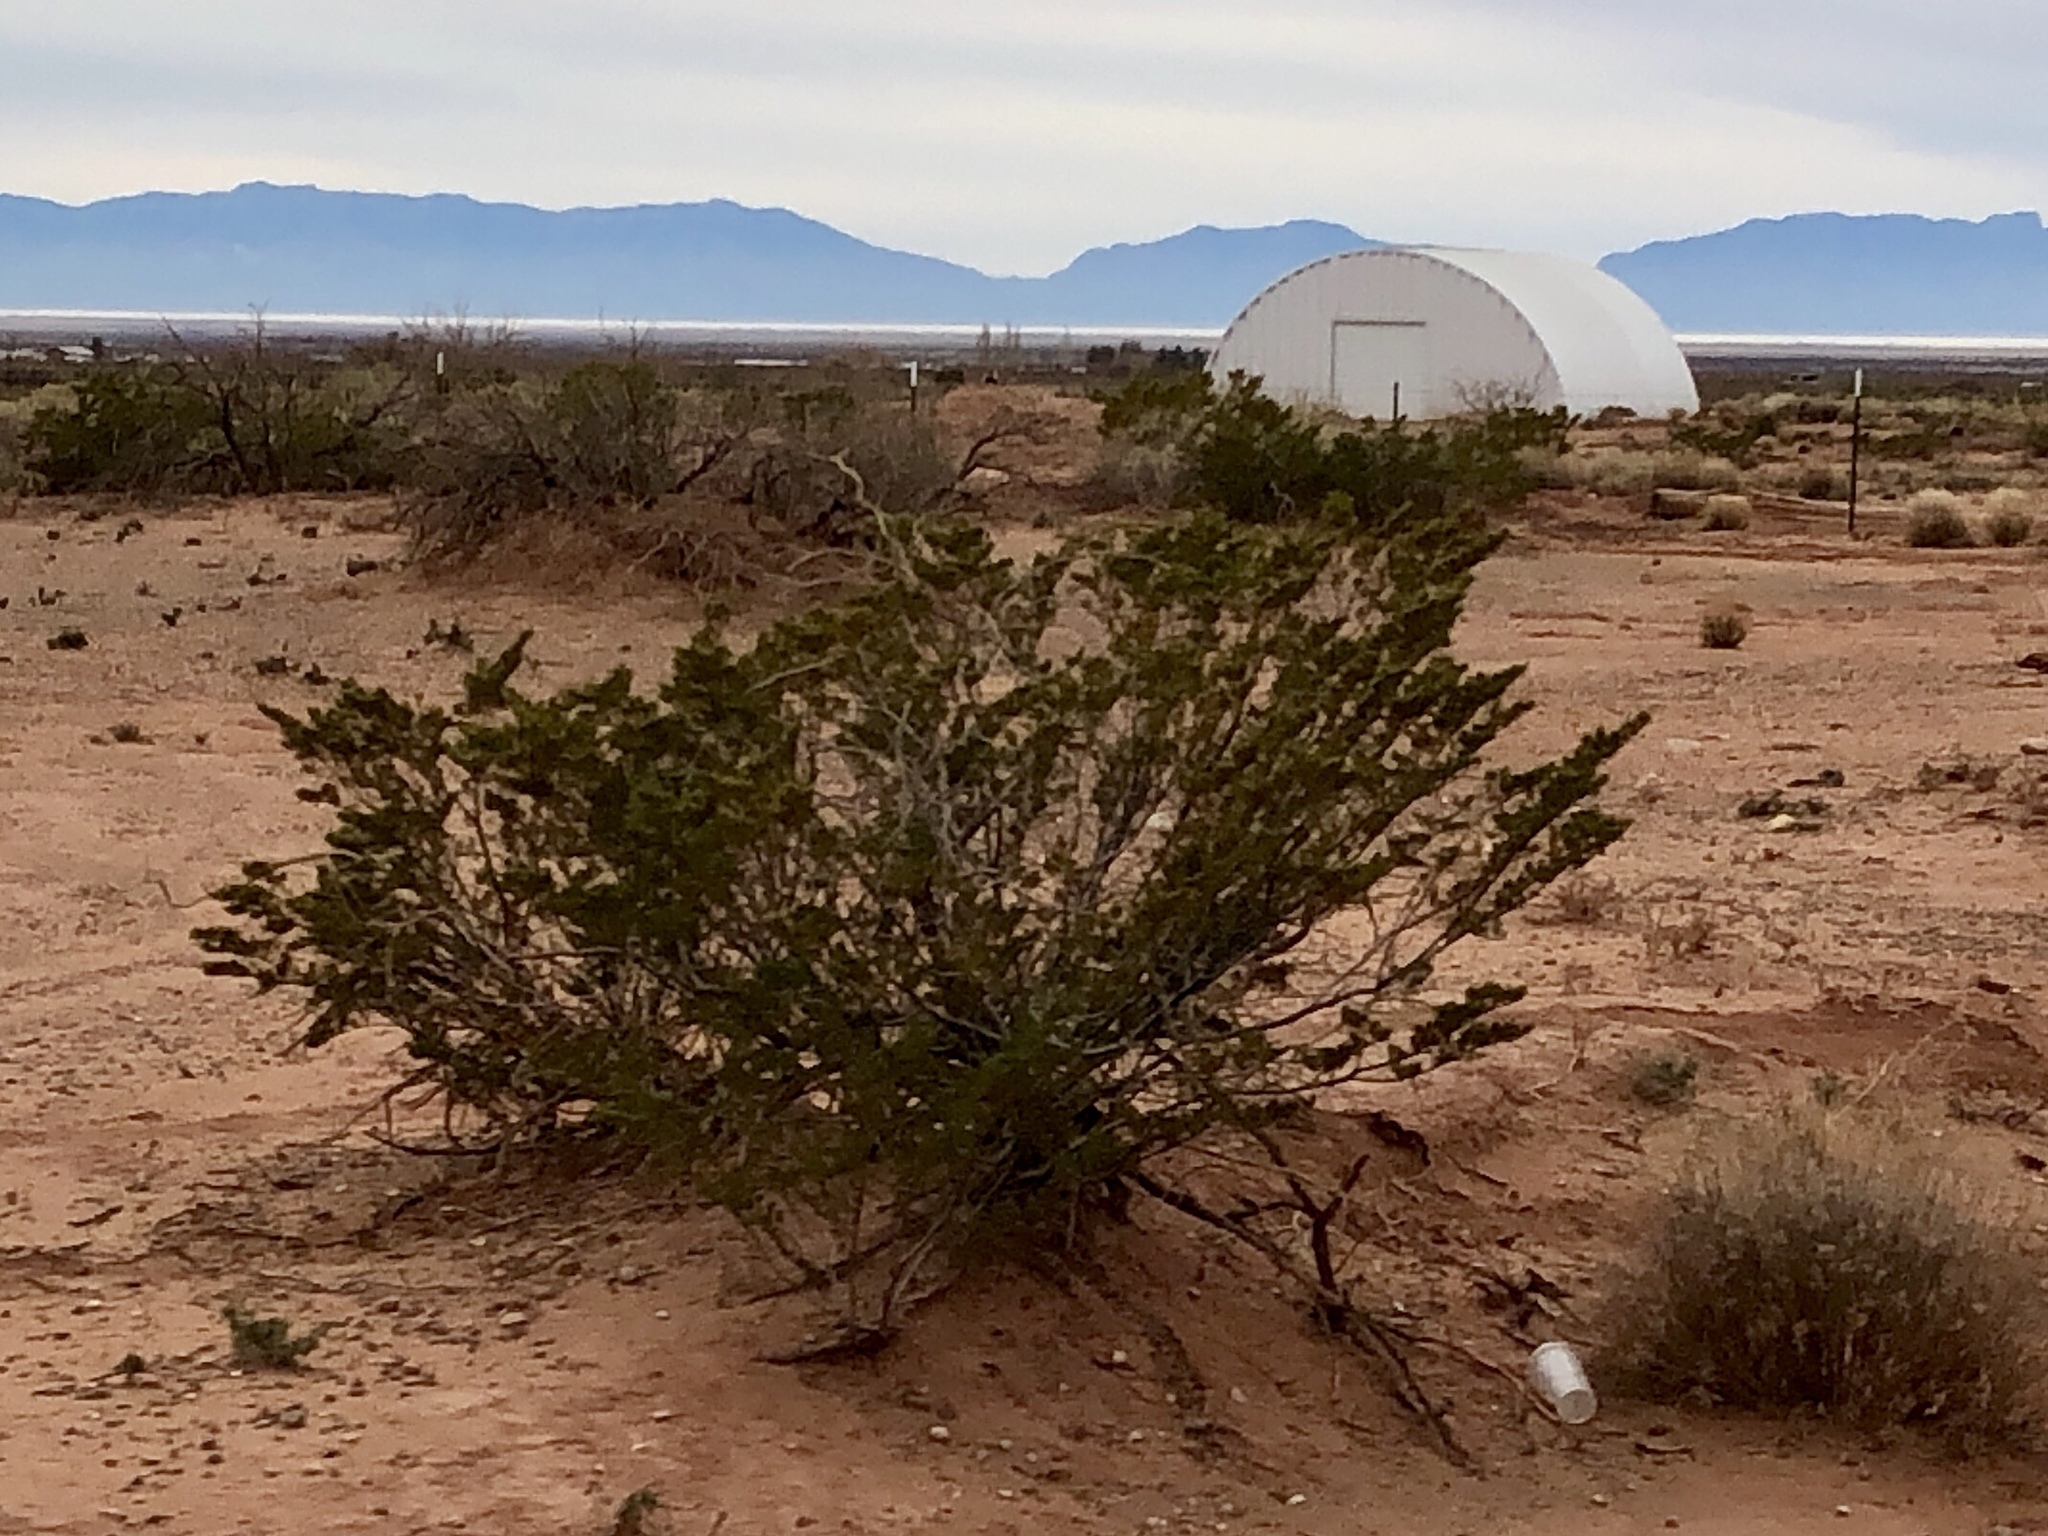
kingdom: Plantae
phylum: Tracheophyta
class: Magnoliopsida
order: Zygophyllales
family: Zygophyllaceae
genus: Larrea
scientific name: Larrea tridentata
